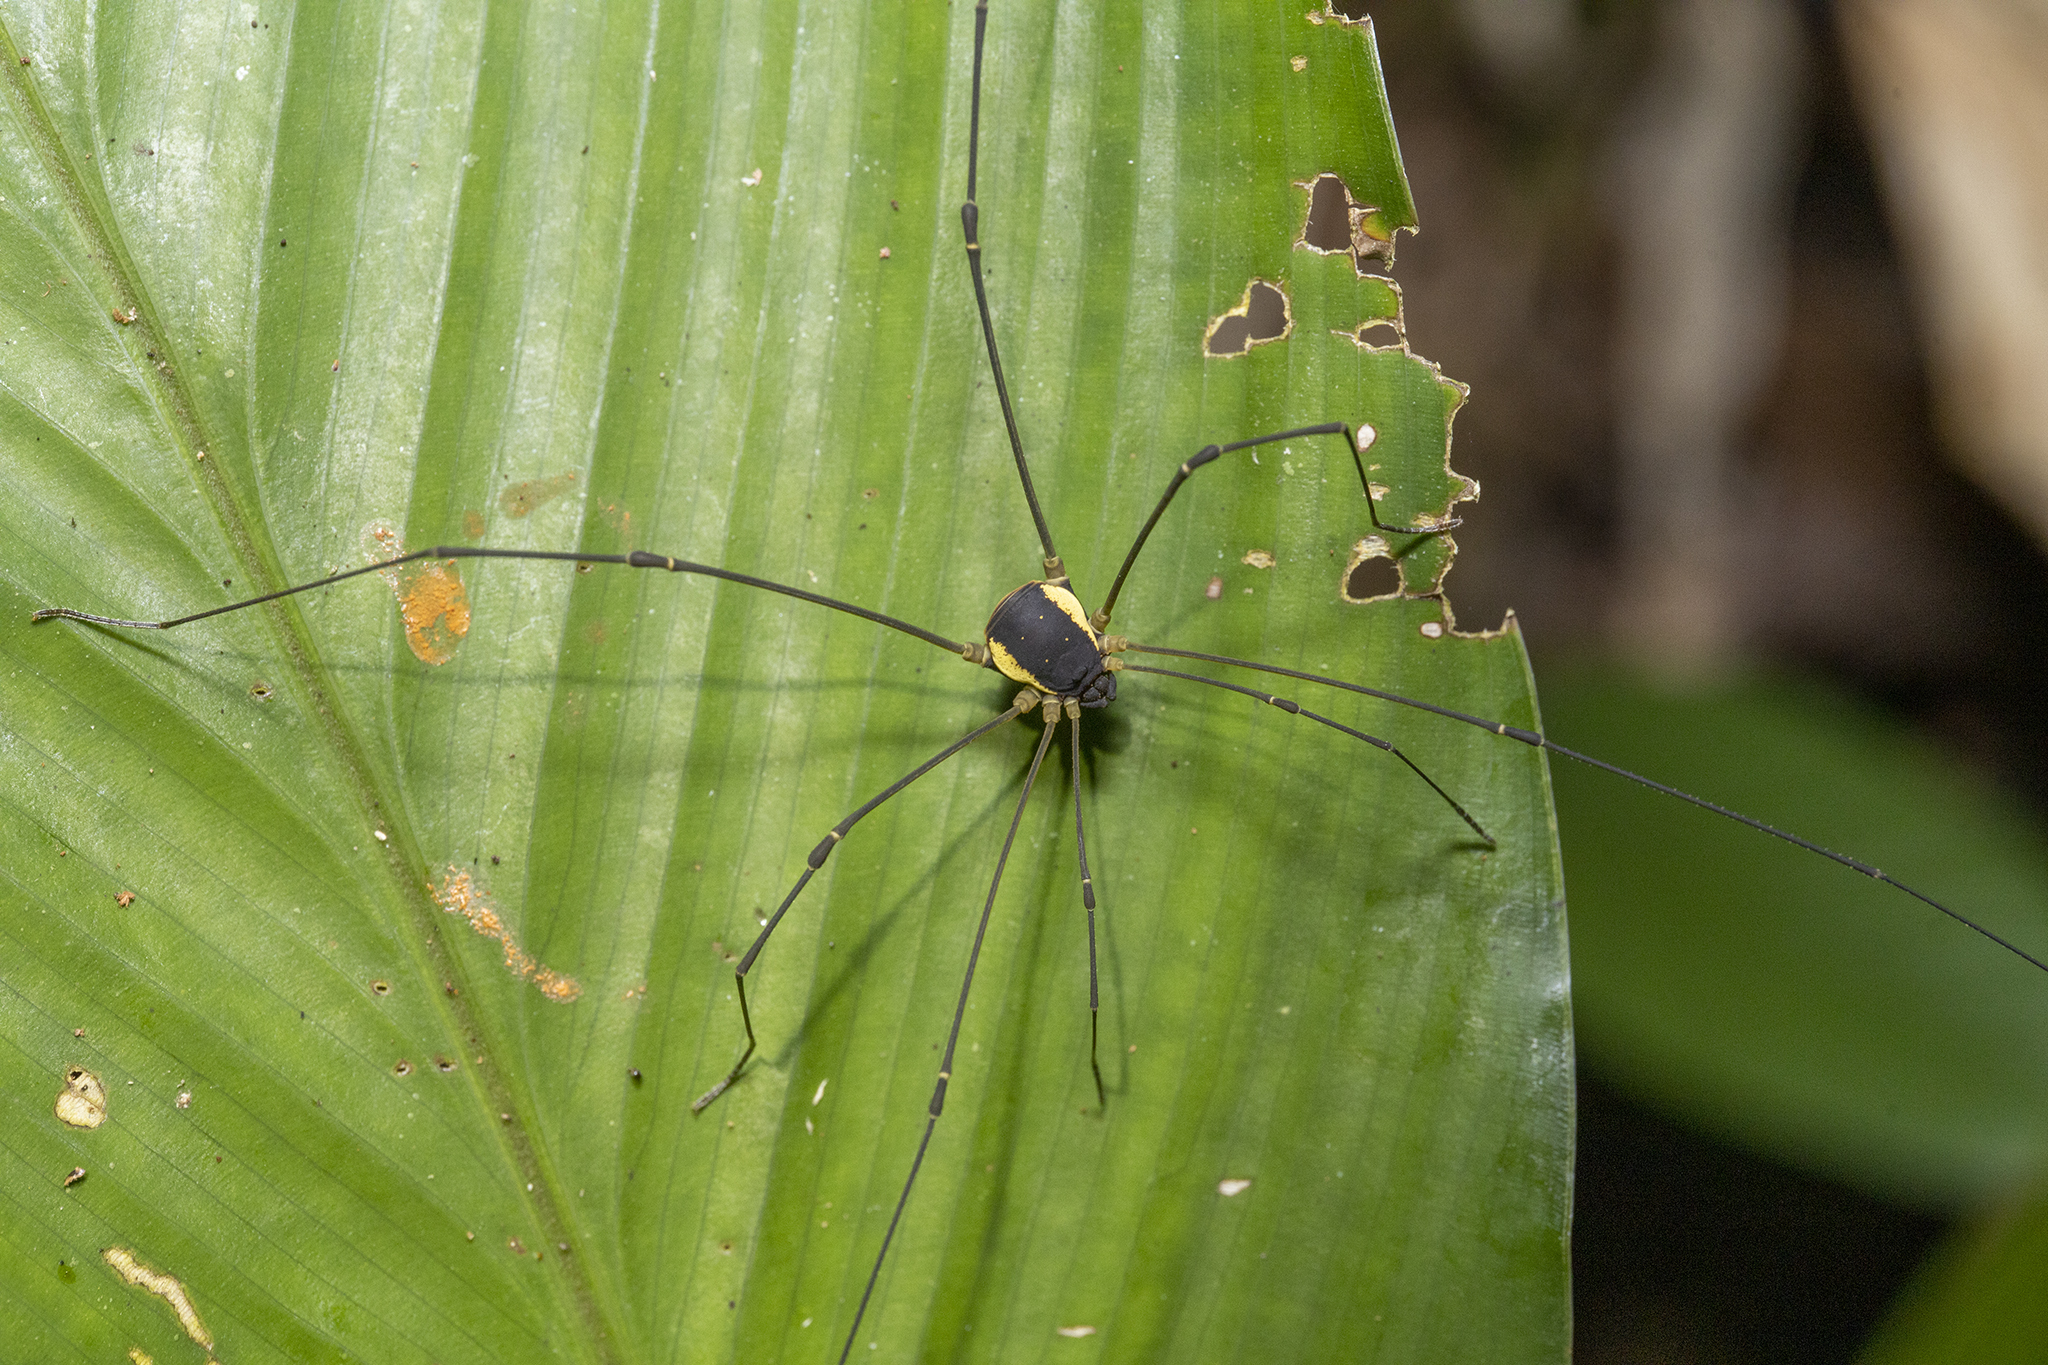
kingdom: Animalia
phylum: Arthropoda
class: Arachnida
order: Opiliones
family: Cosmetidae
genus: Protus
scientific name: Protus speciosus
